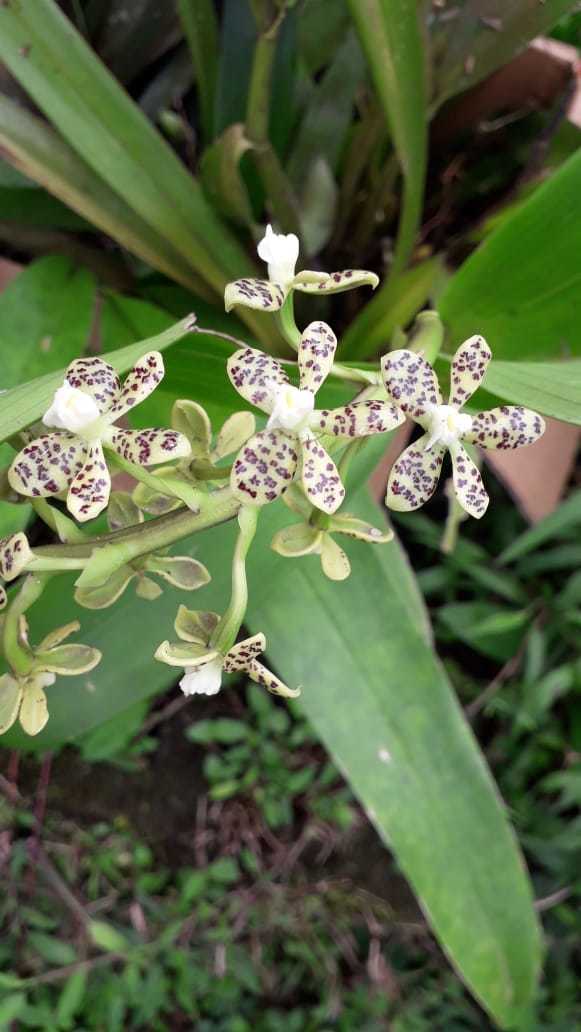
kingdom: Plantae
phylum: Tracheophyta
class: Liliopsida
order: Asparagales
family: Orchidaceae
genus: Prosthechea
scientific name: Prosthechea vespa
